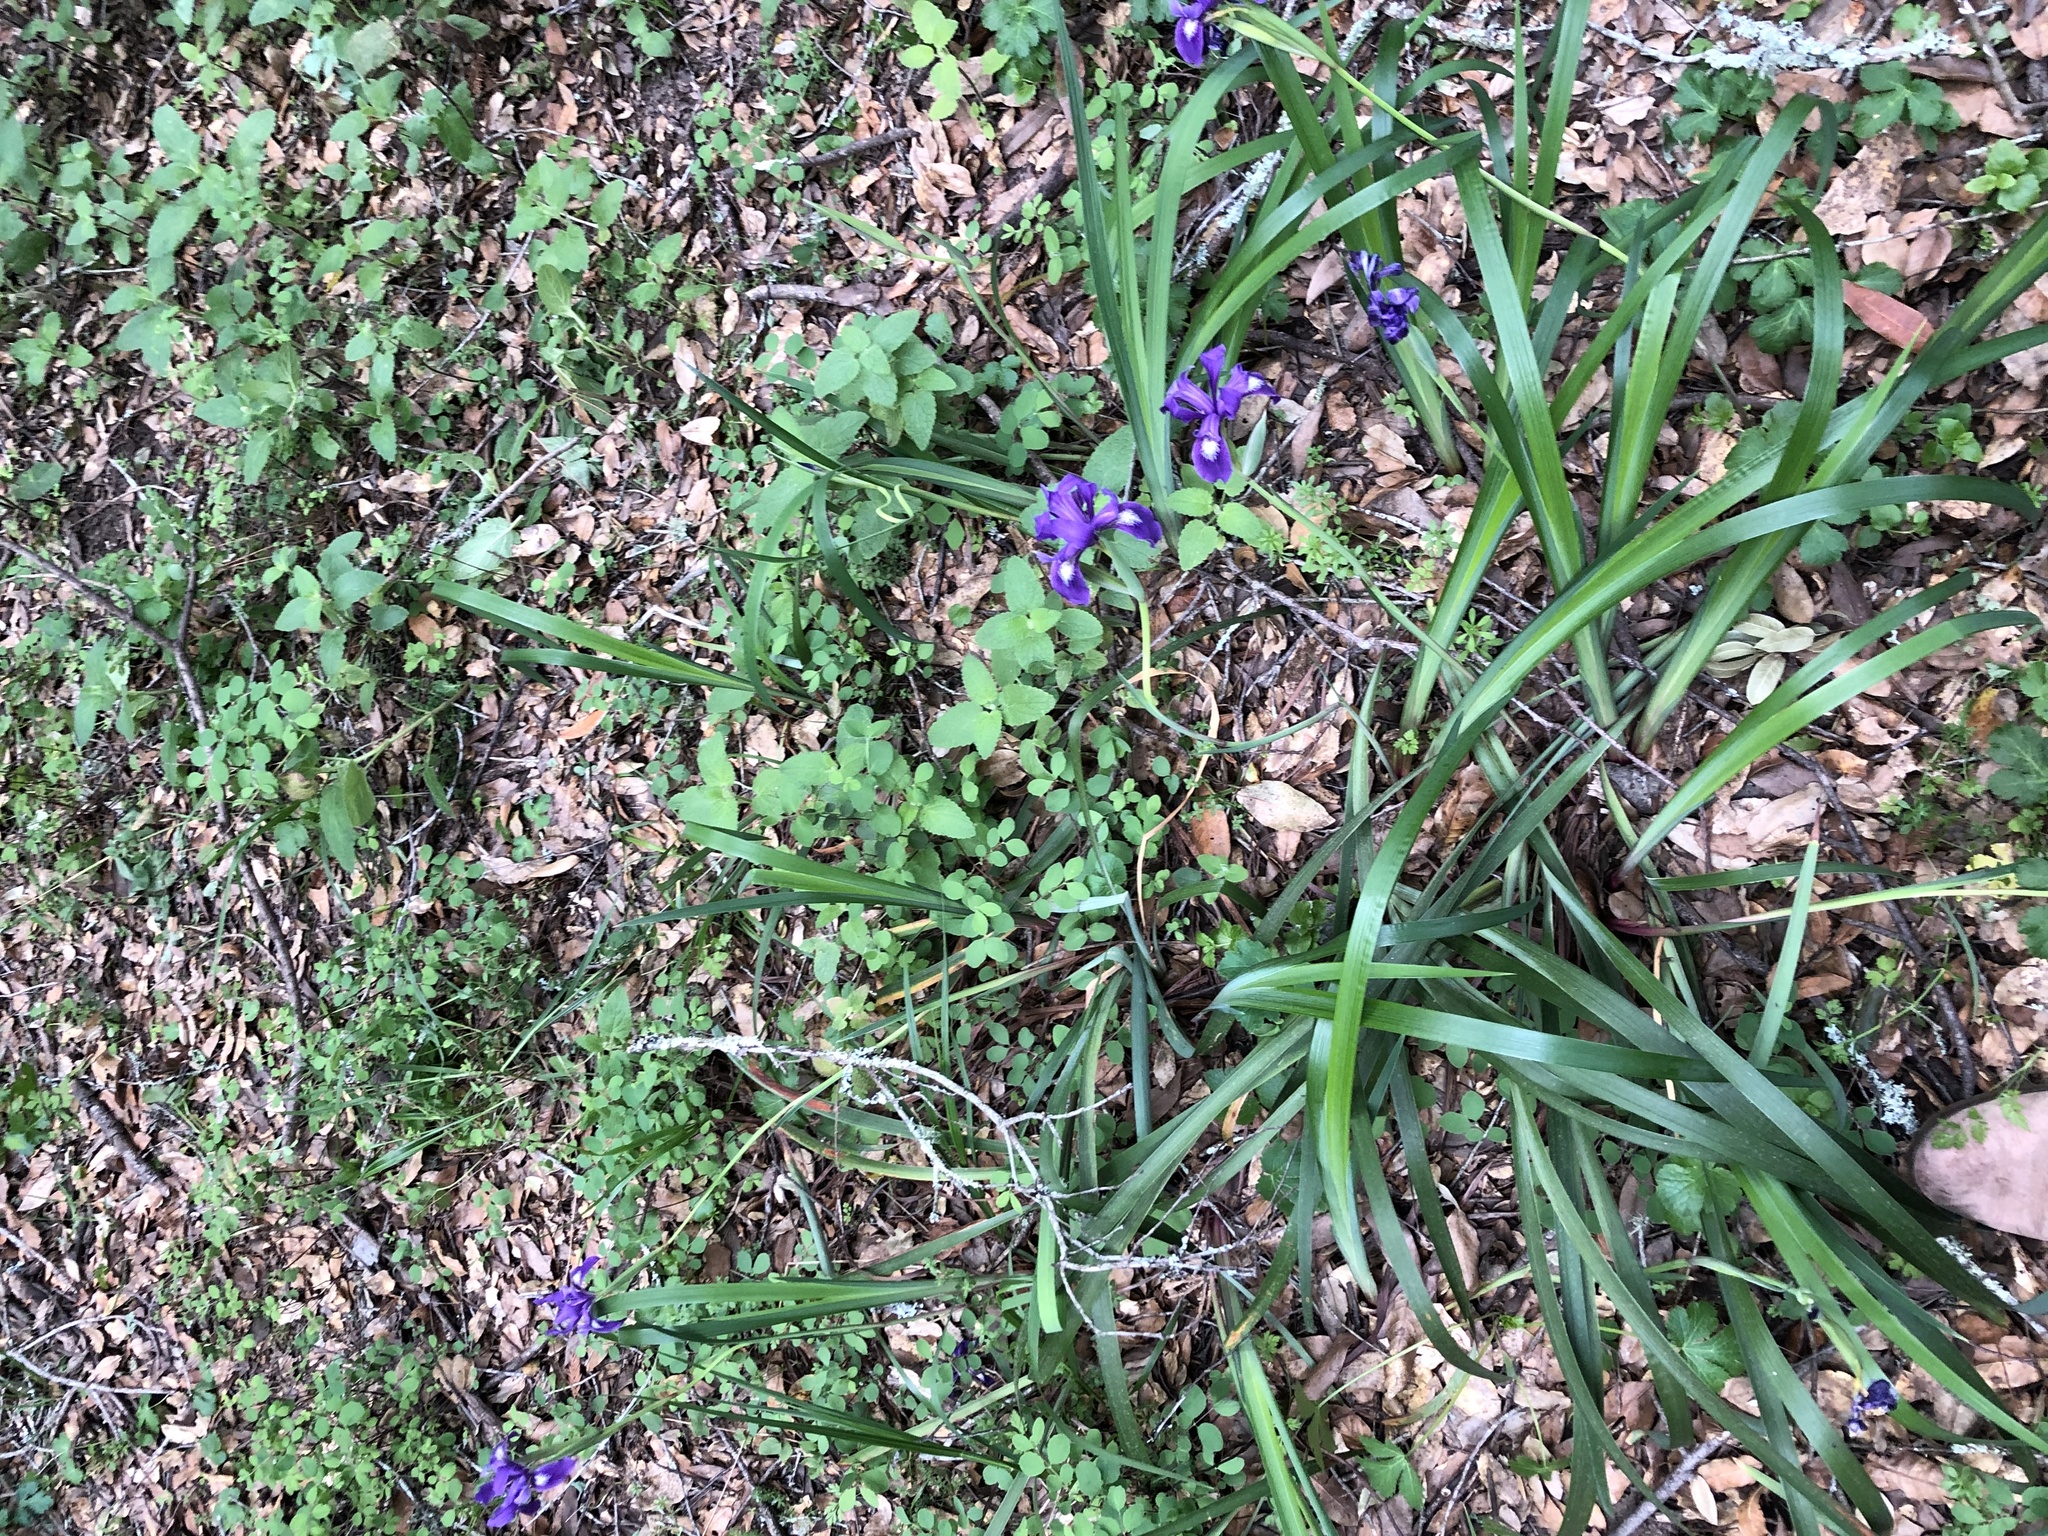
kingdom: Plantae
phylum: Tracheophyta
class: Liliopsida
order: Asparagales
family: Iridaceae
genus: Iris
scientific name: Iris douglasiana
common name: Marin iris
